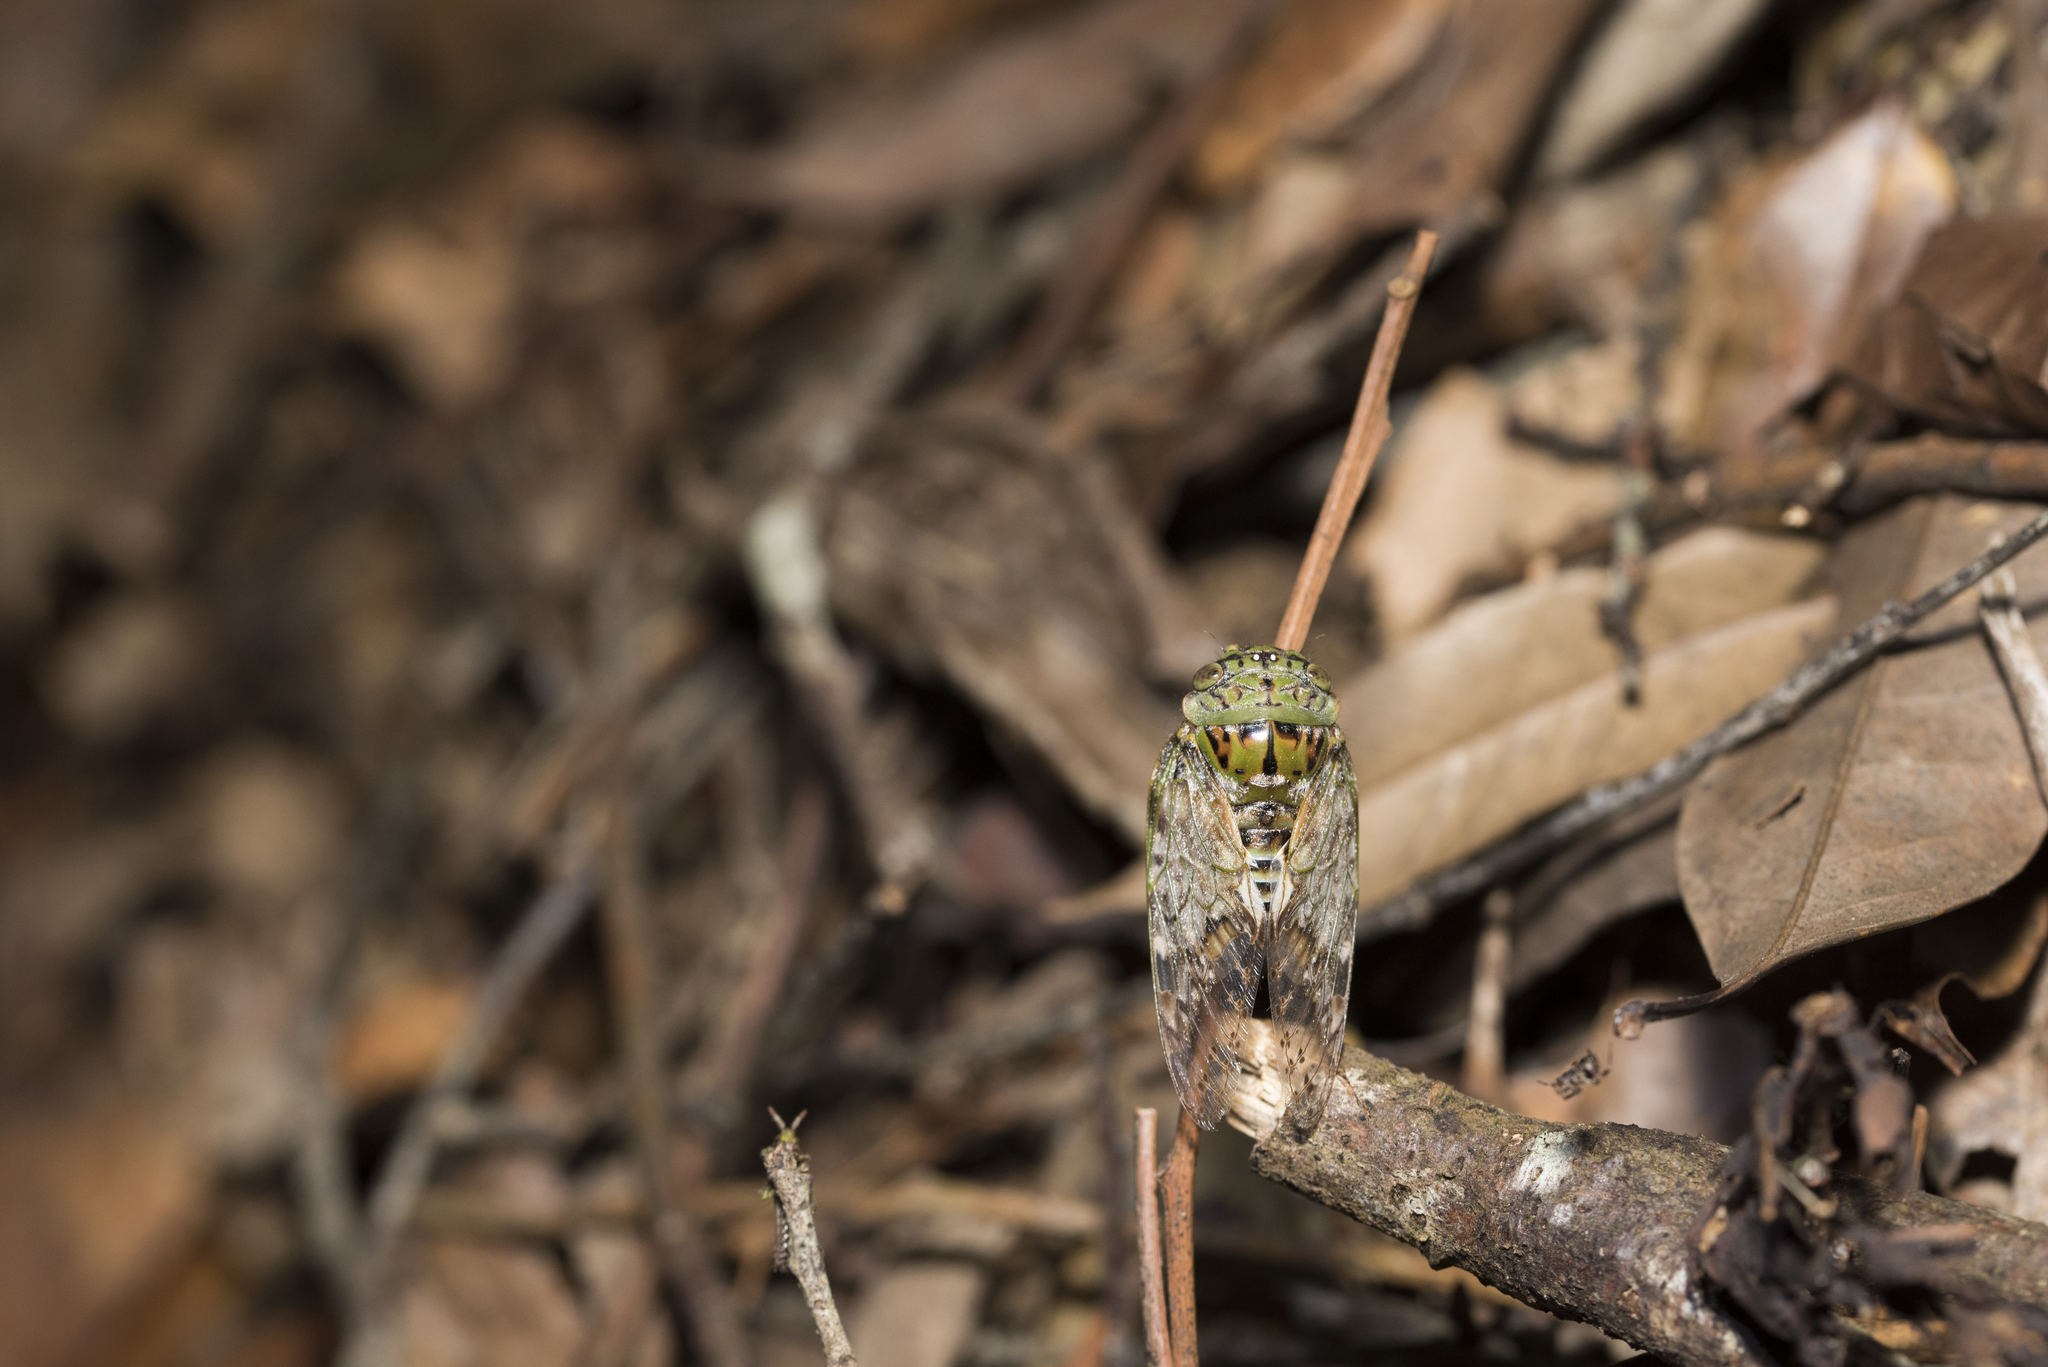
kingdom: Animalia
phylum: Arthropoda
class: Insecta
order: Hemiptera
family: Cicadidae
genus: Suisha
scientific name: Suisha formosana
